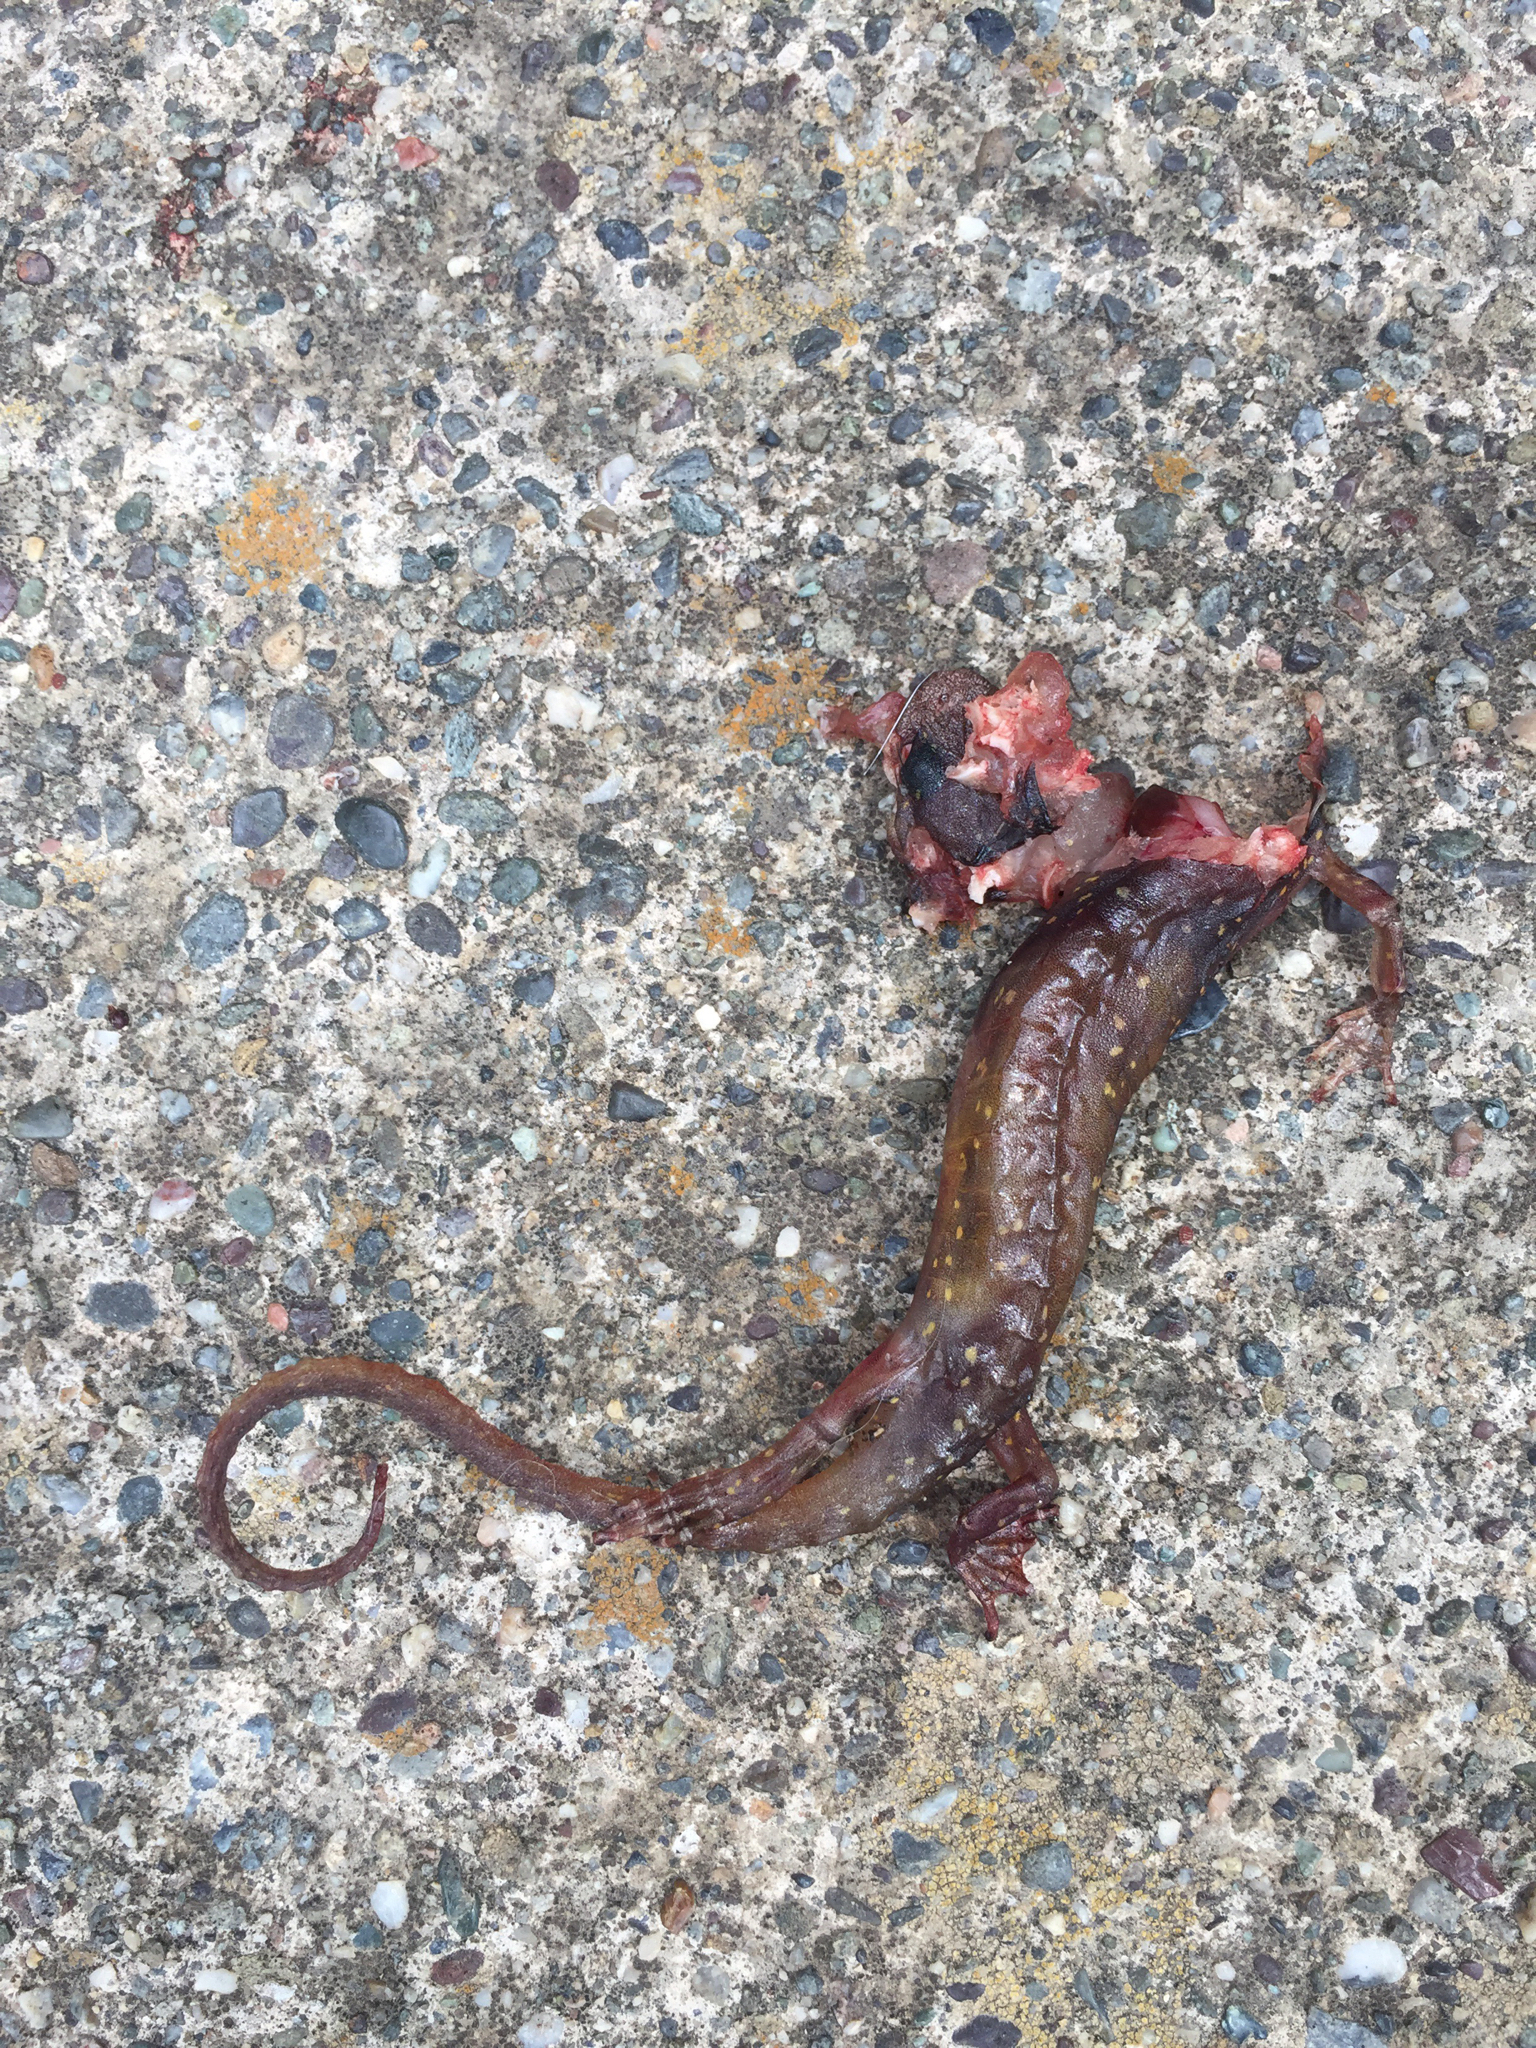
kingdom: Animalia
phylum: Chordata
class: Amphibia
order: Caudata
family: Plethodontidae
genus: Aneides
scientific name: Aneides lugubris
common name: Arboreal salamander
